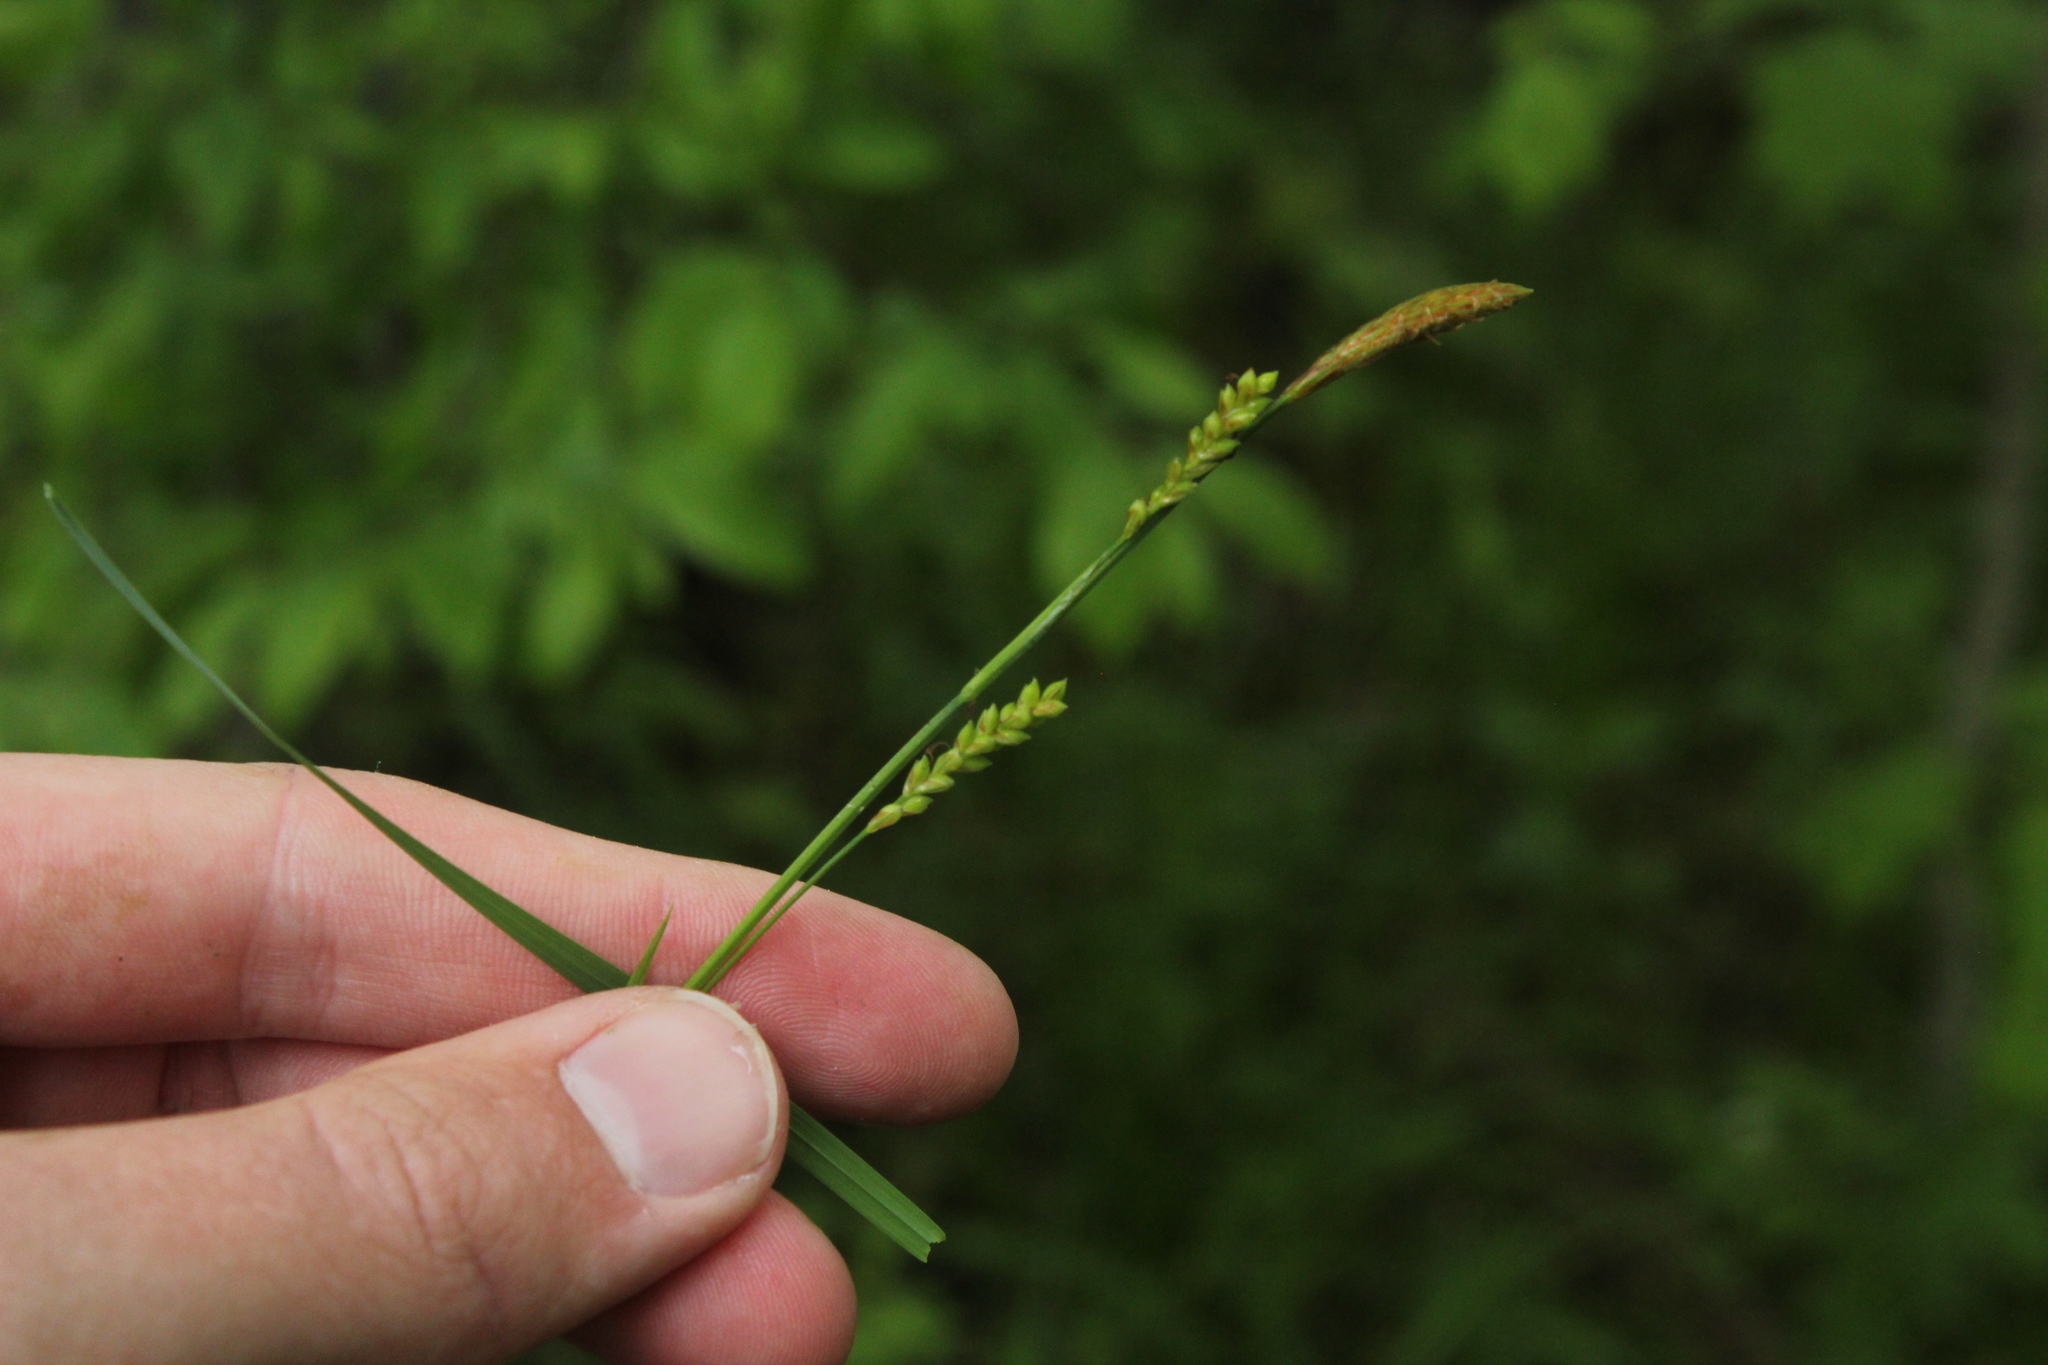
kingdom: Plantae
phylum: Tracheophyta
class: Liliopsida
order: Poales
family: Cyperaceae
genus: Carex
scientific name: Carex woodii
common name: Wood's sedge
